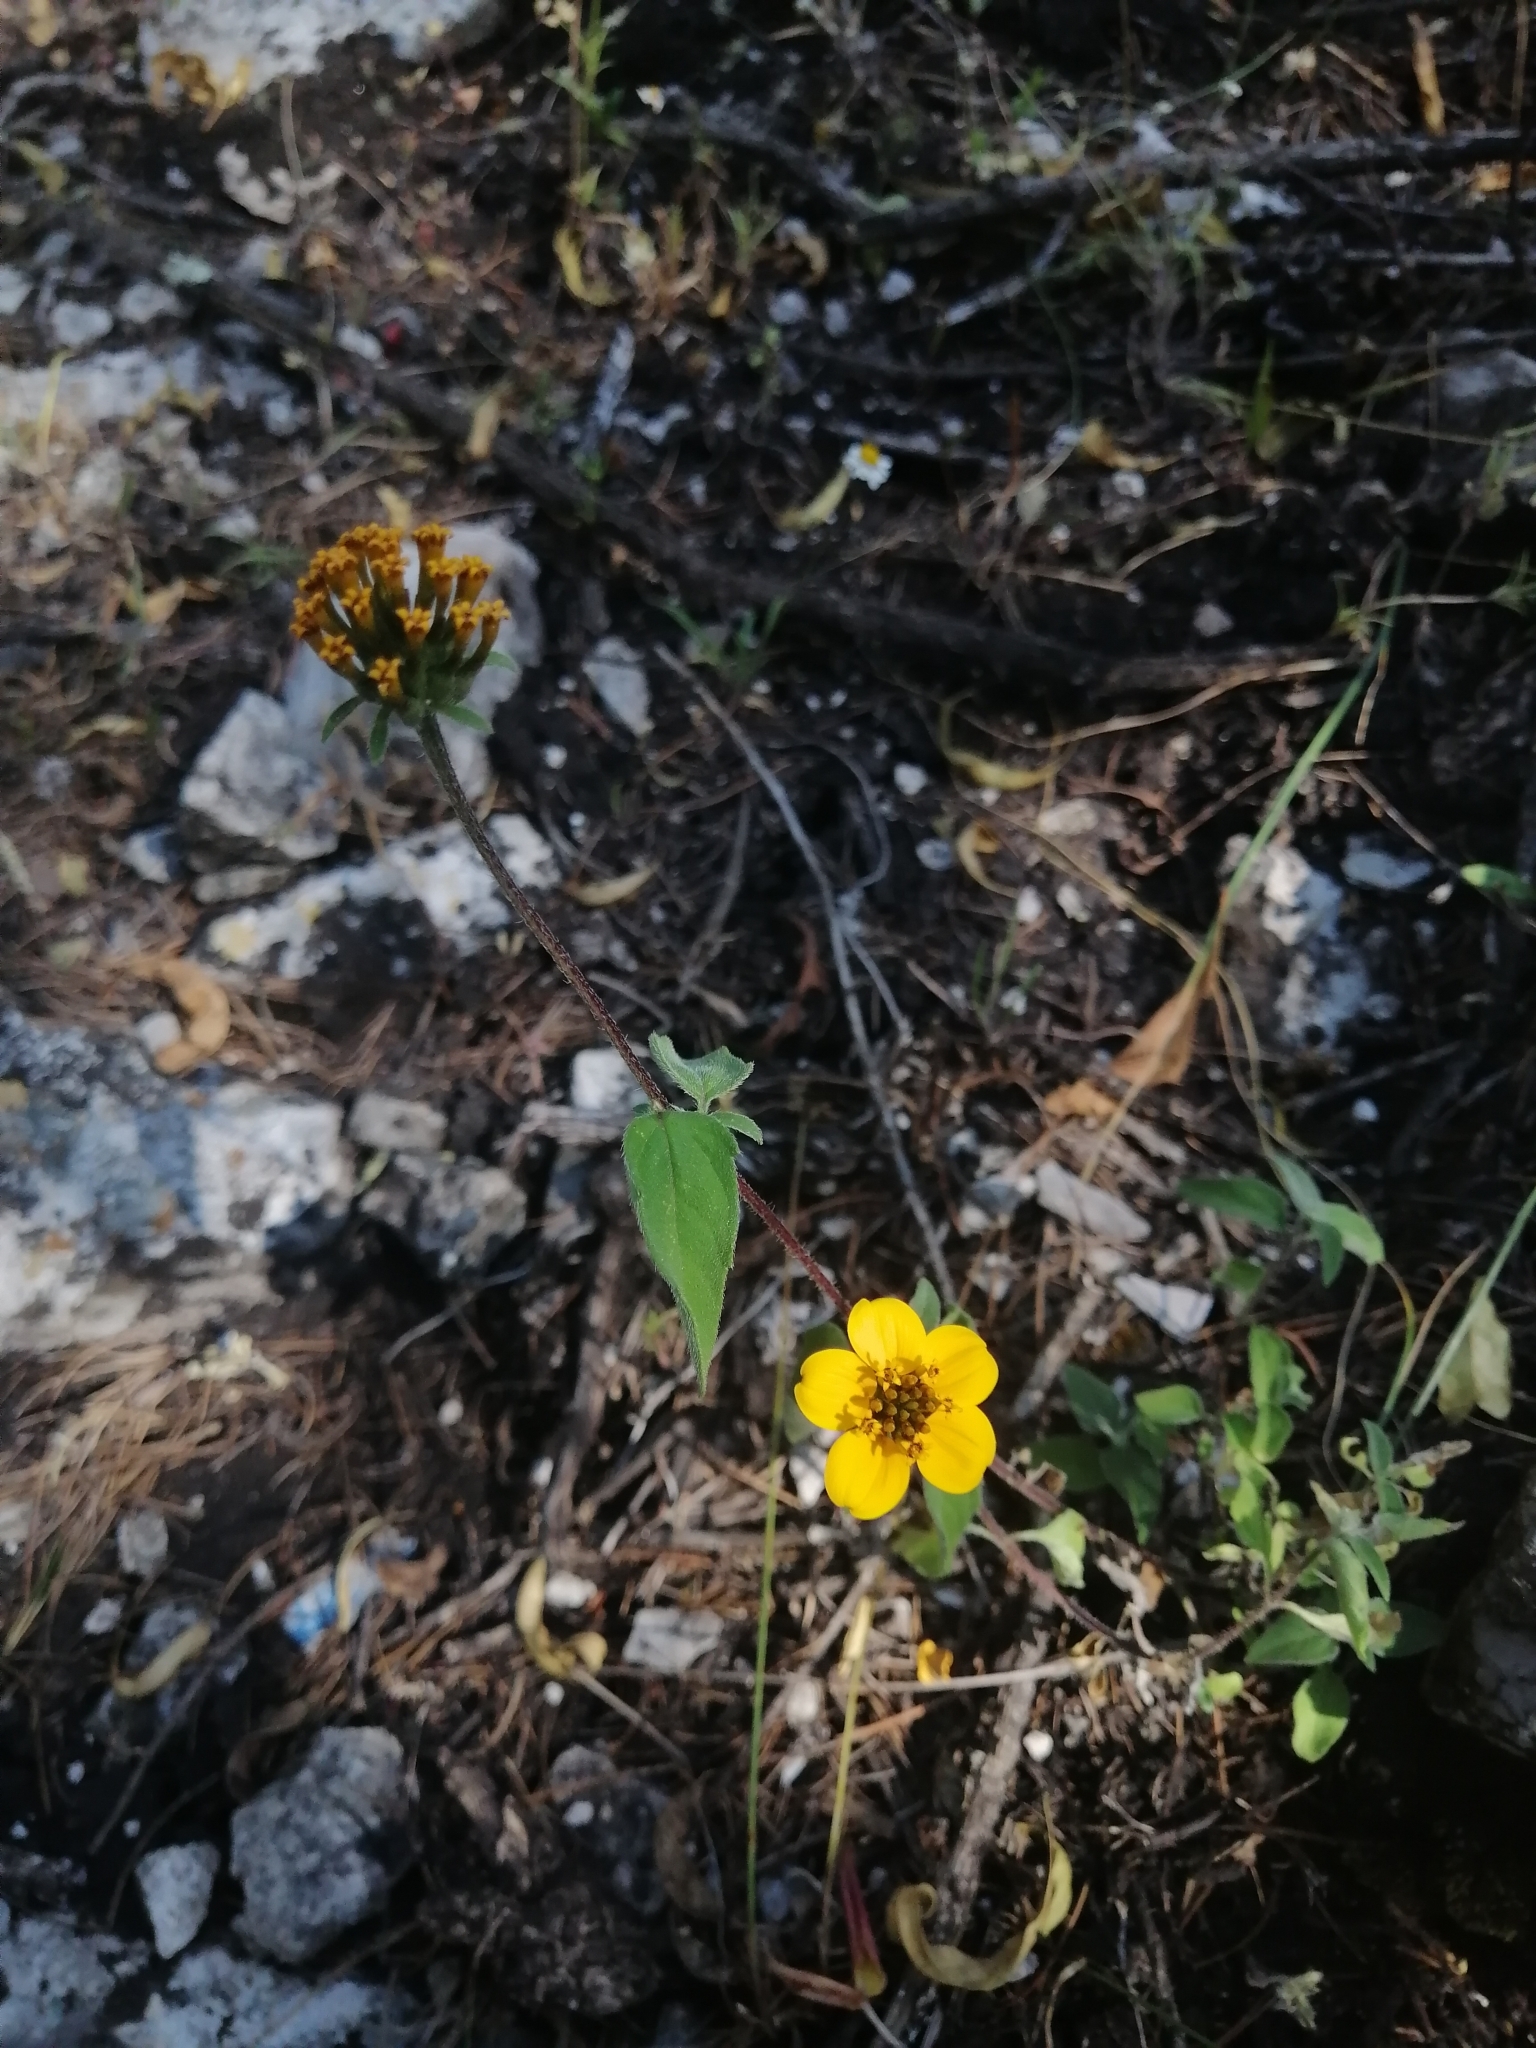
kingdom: Plantae
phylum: Tracheophyta
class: Magnoliopsida
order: Asterales
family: Asteraceae
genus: Sclerocarpus
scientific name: Sclerocarpus uniserialis
